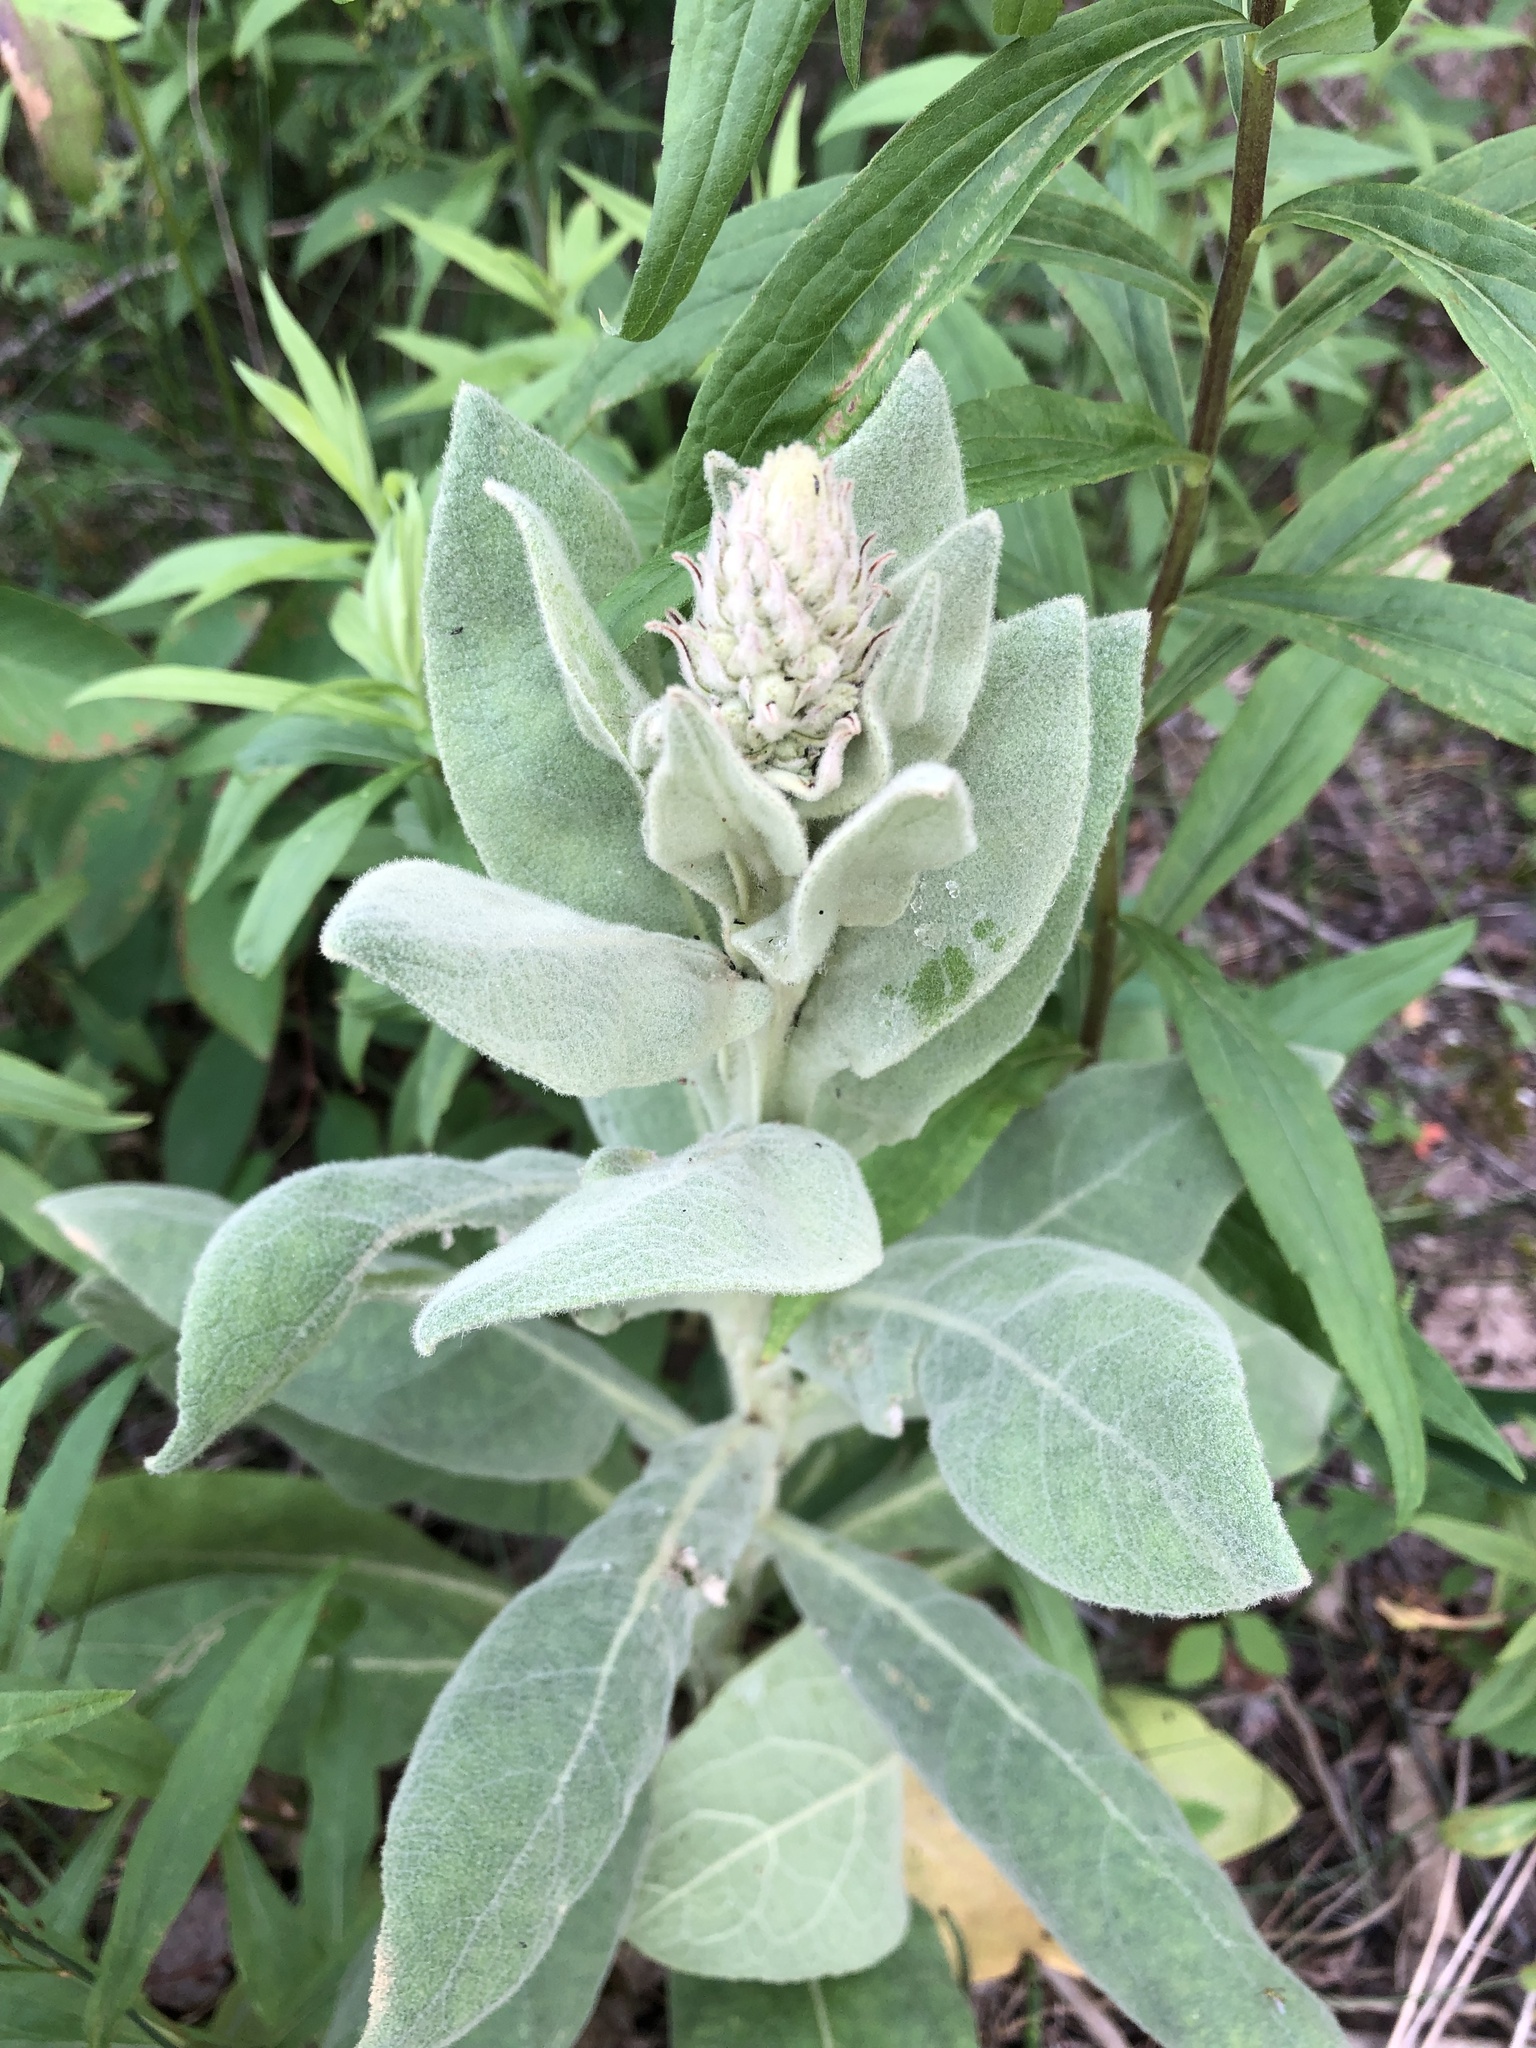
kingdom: Plantae
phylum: Tracheophyta
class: Magnoliopsida
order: Lamiales
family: Scrophulariaceae
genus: Verbascum
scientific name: Verbascum thapsus
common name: Common mullein
